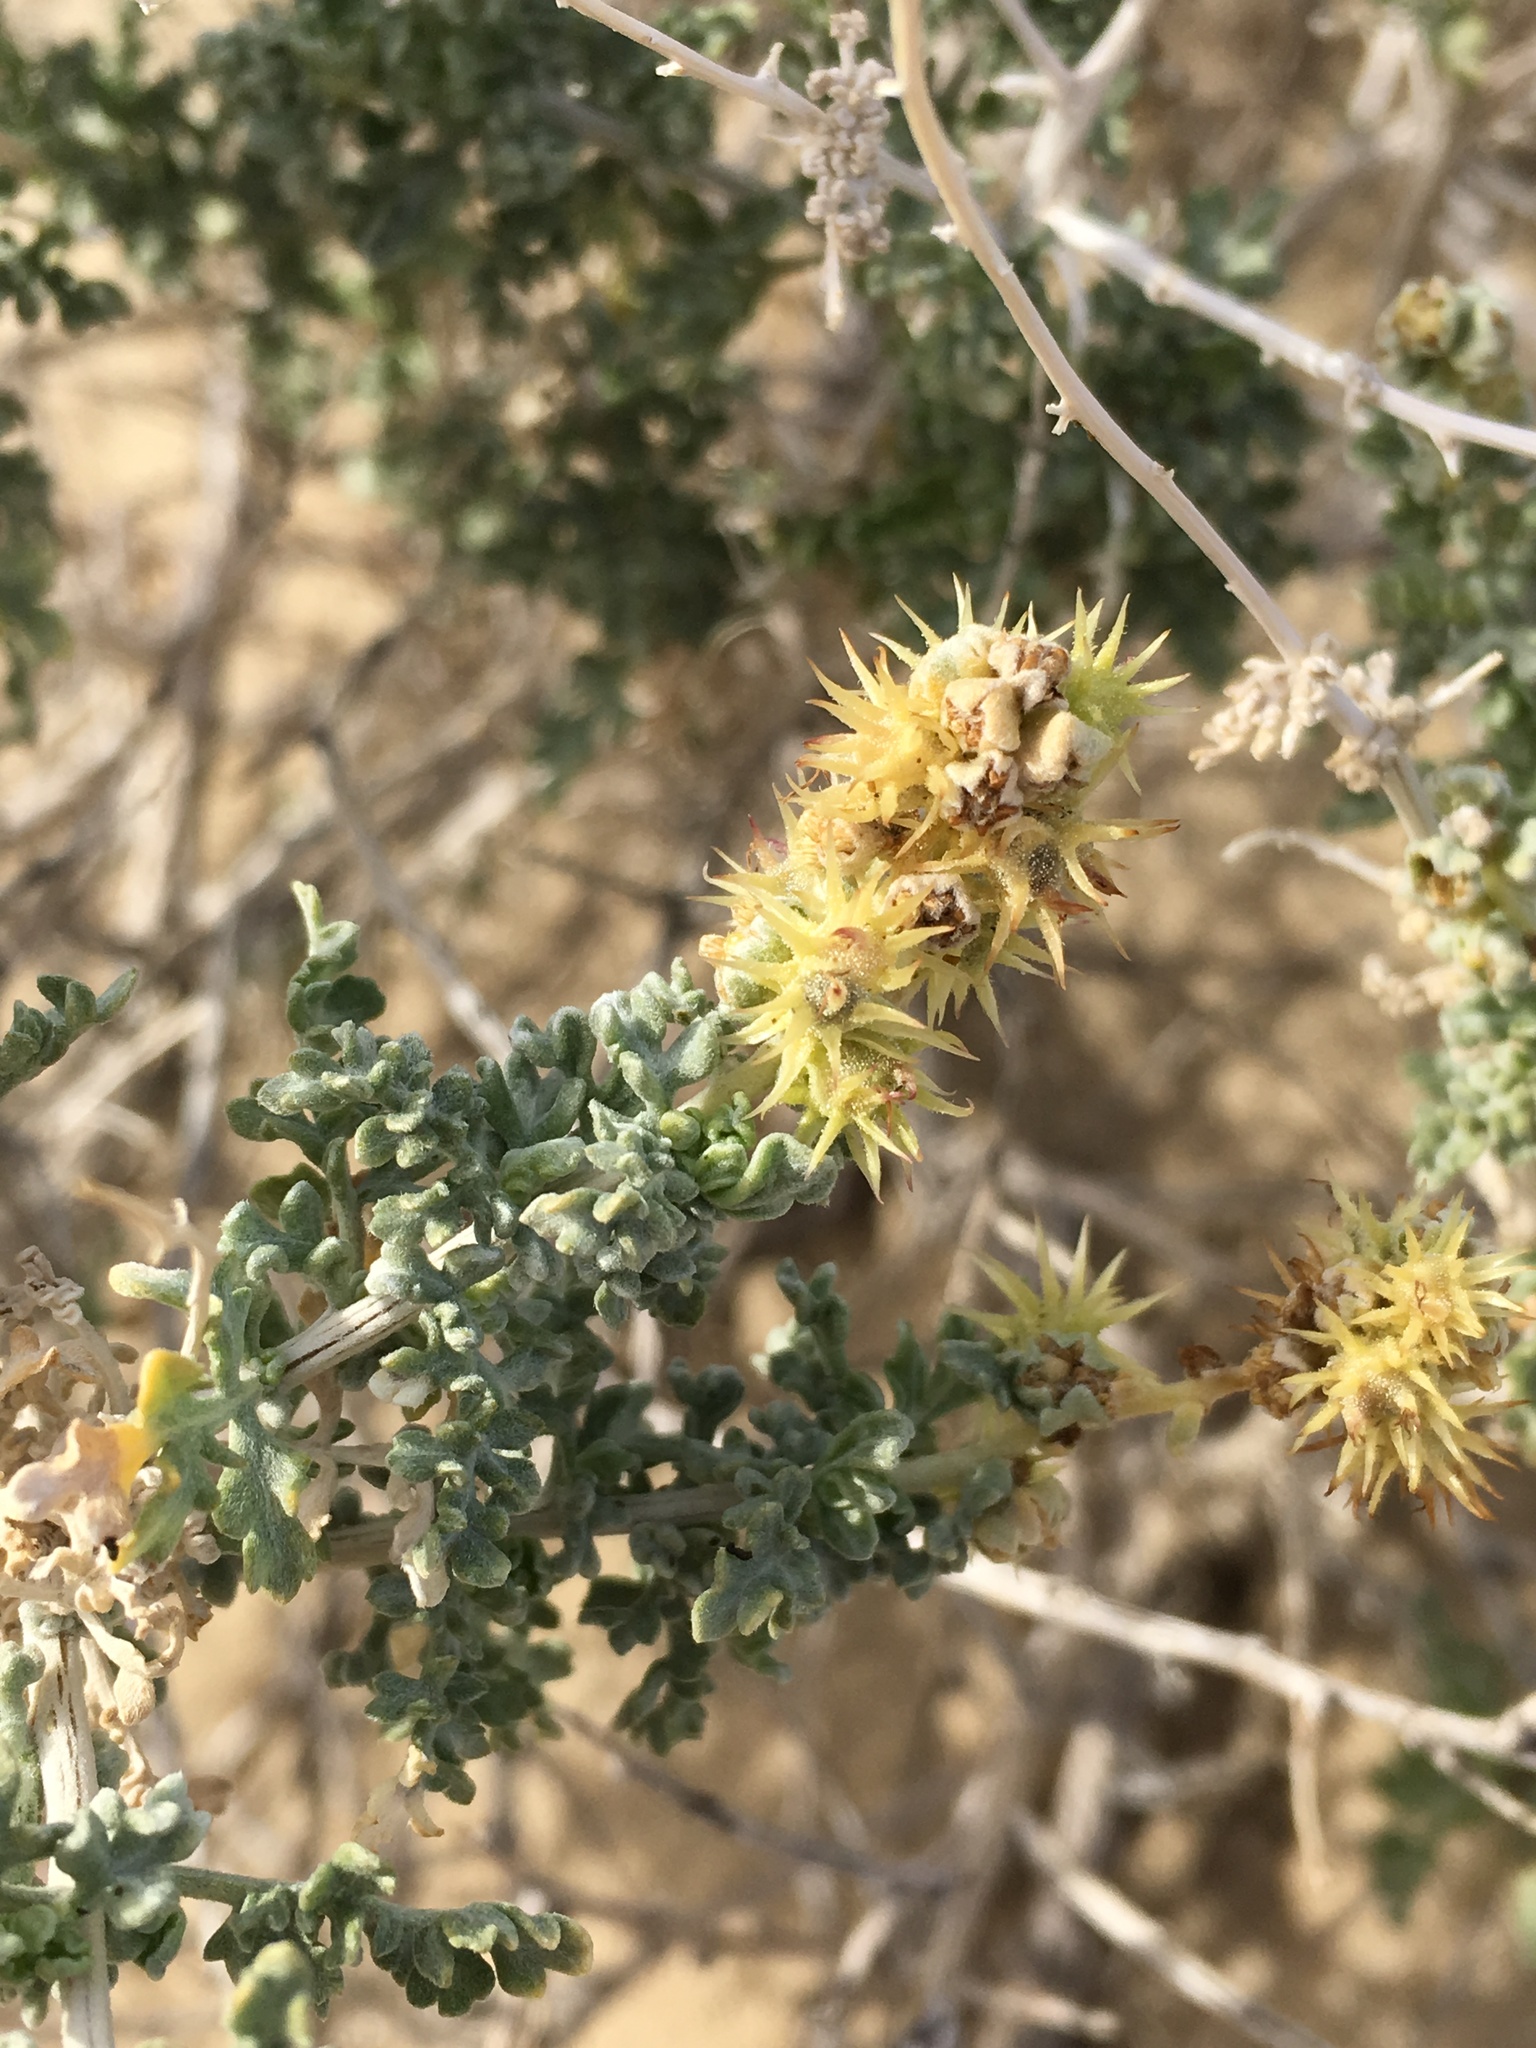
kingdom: Plantae
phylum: Tracheophyta
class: Magnoliopsida
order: Asterales
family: Asteraceae
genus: Ambrosia
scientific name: Ambrosia dumosa
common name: Bur-sage
